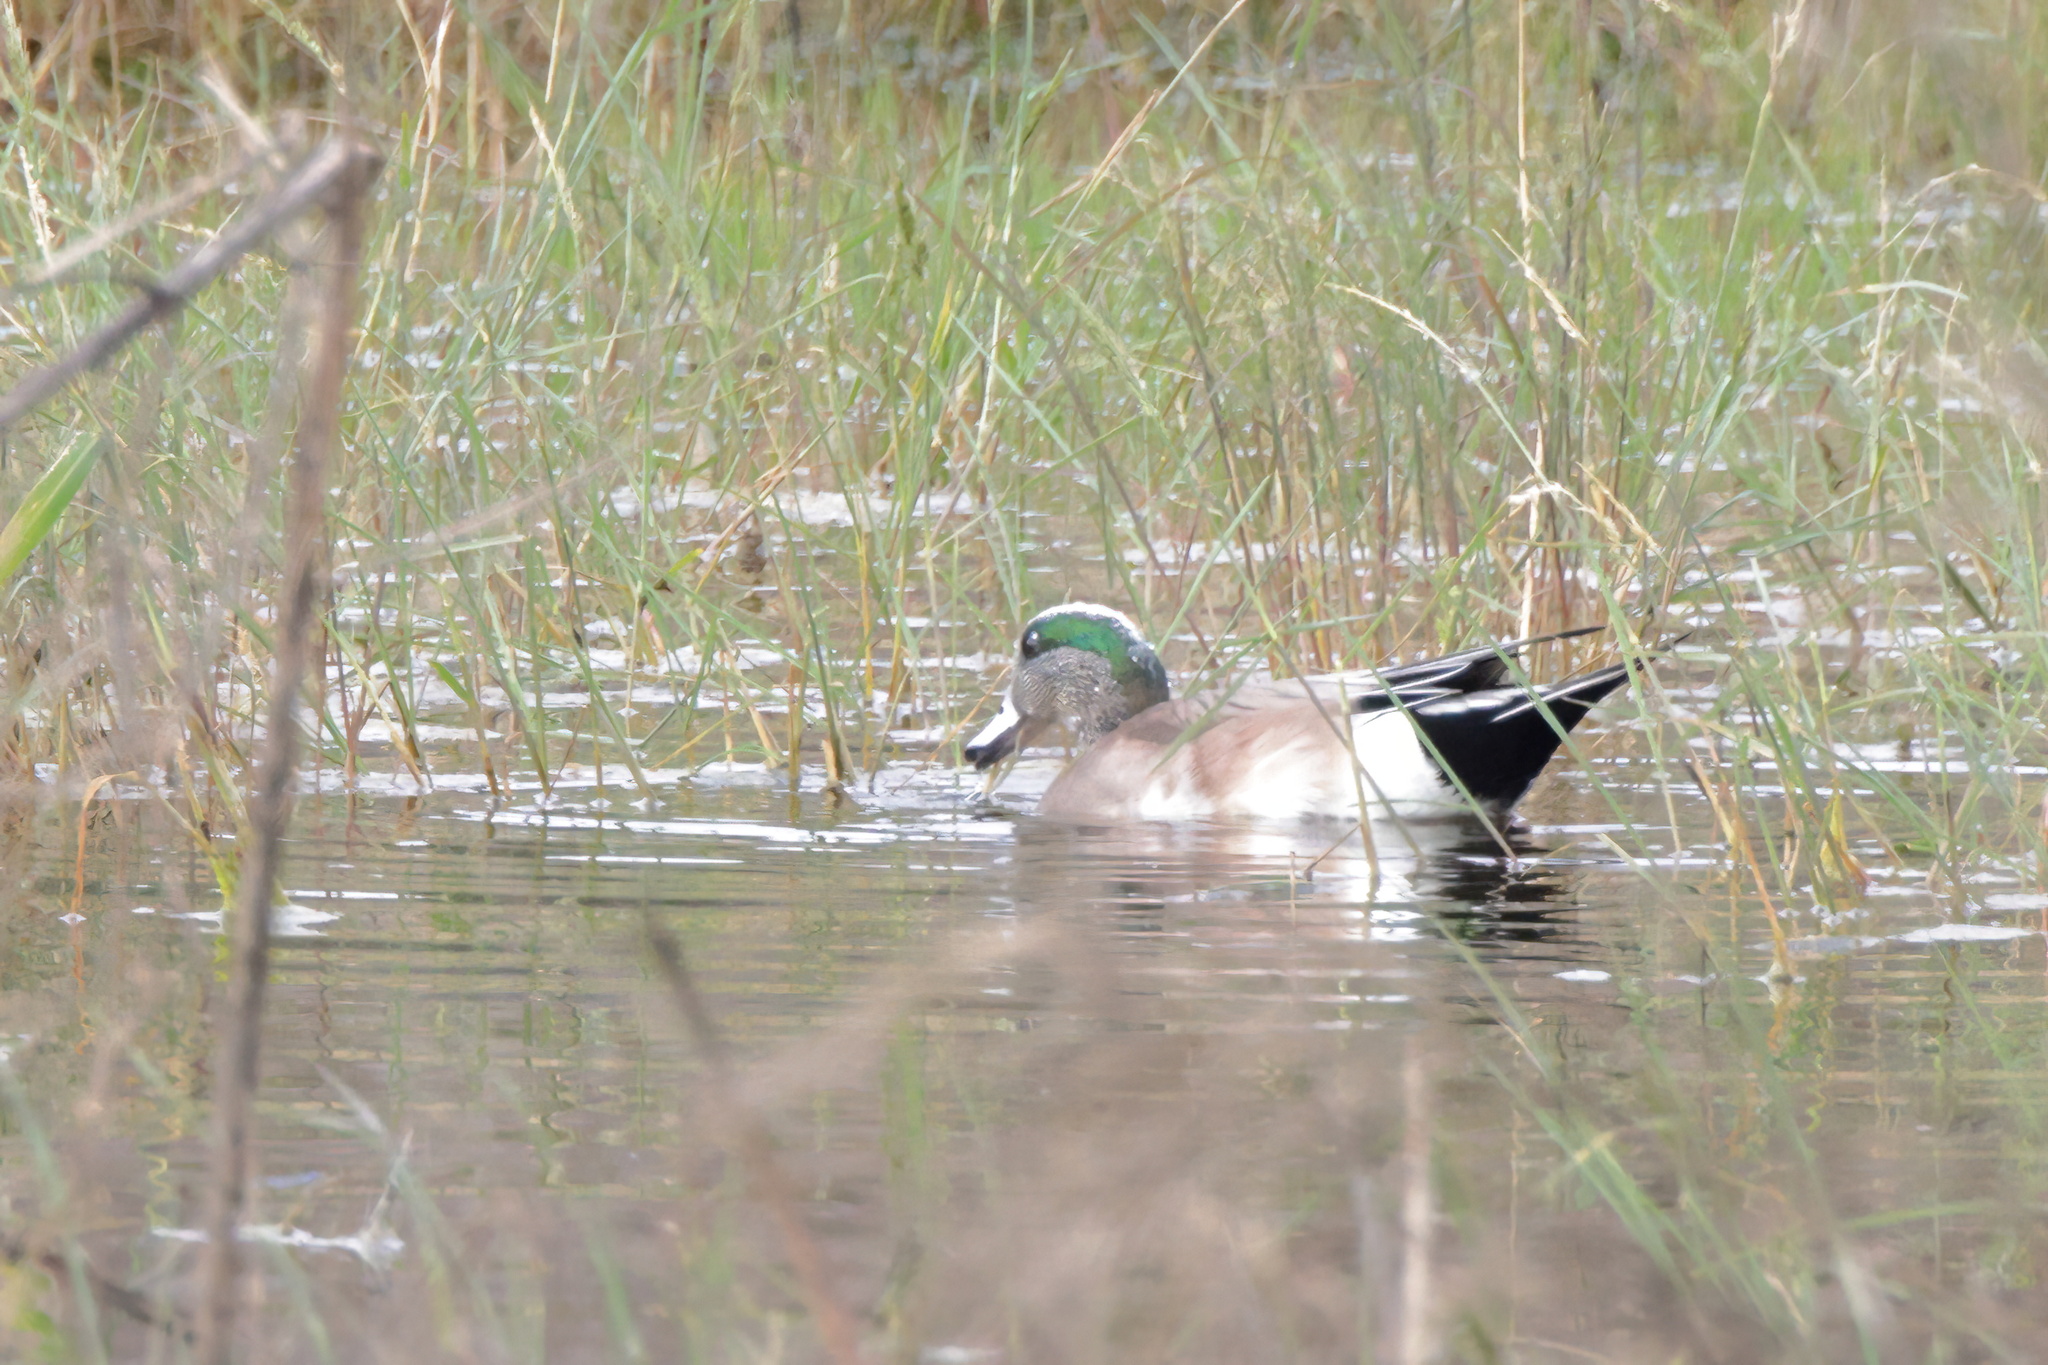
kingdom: Animalia
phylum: Chordata
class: Aves
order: Anseriformes
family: Anatidae
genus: Mareca
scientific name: Mareca americana
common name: American wigeon
